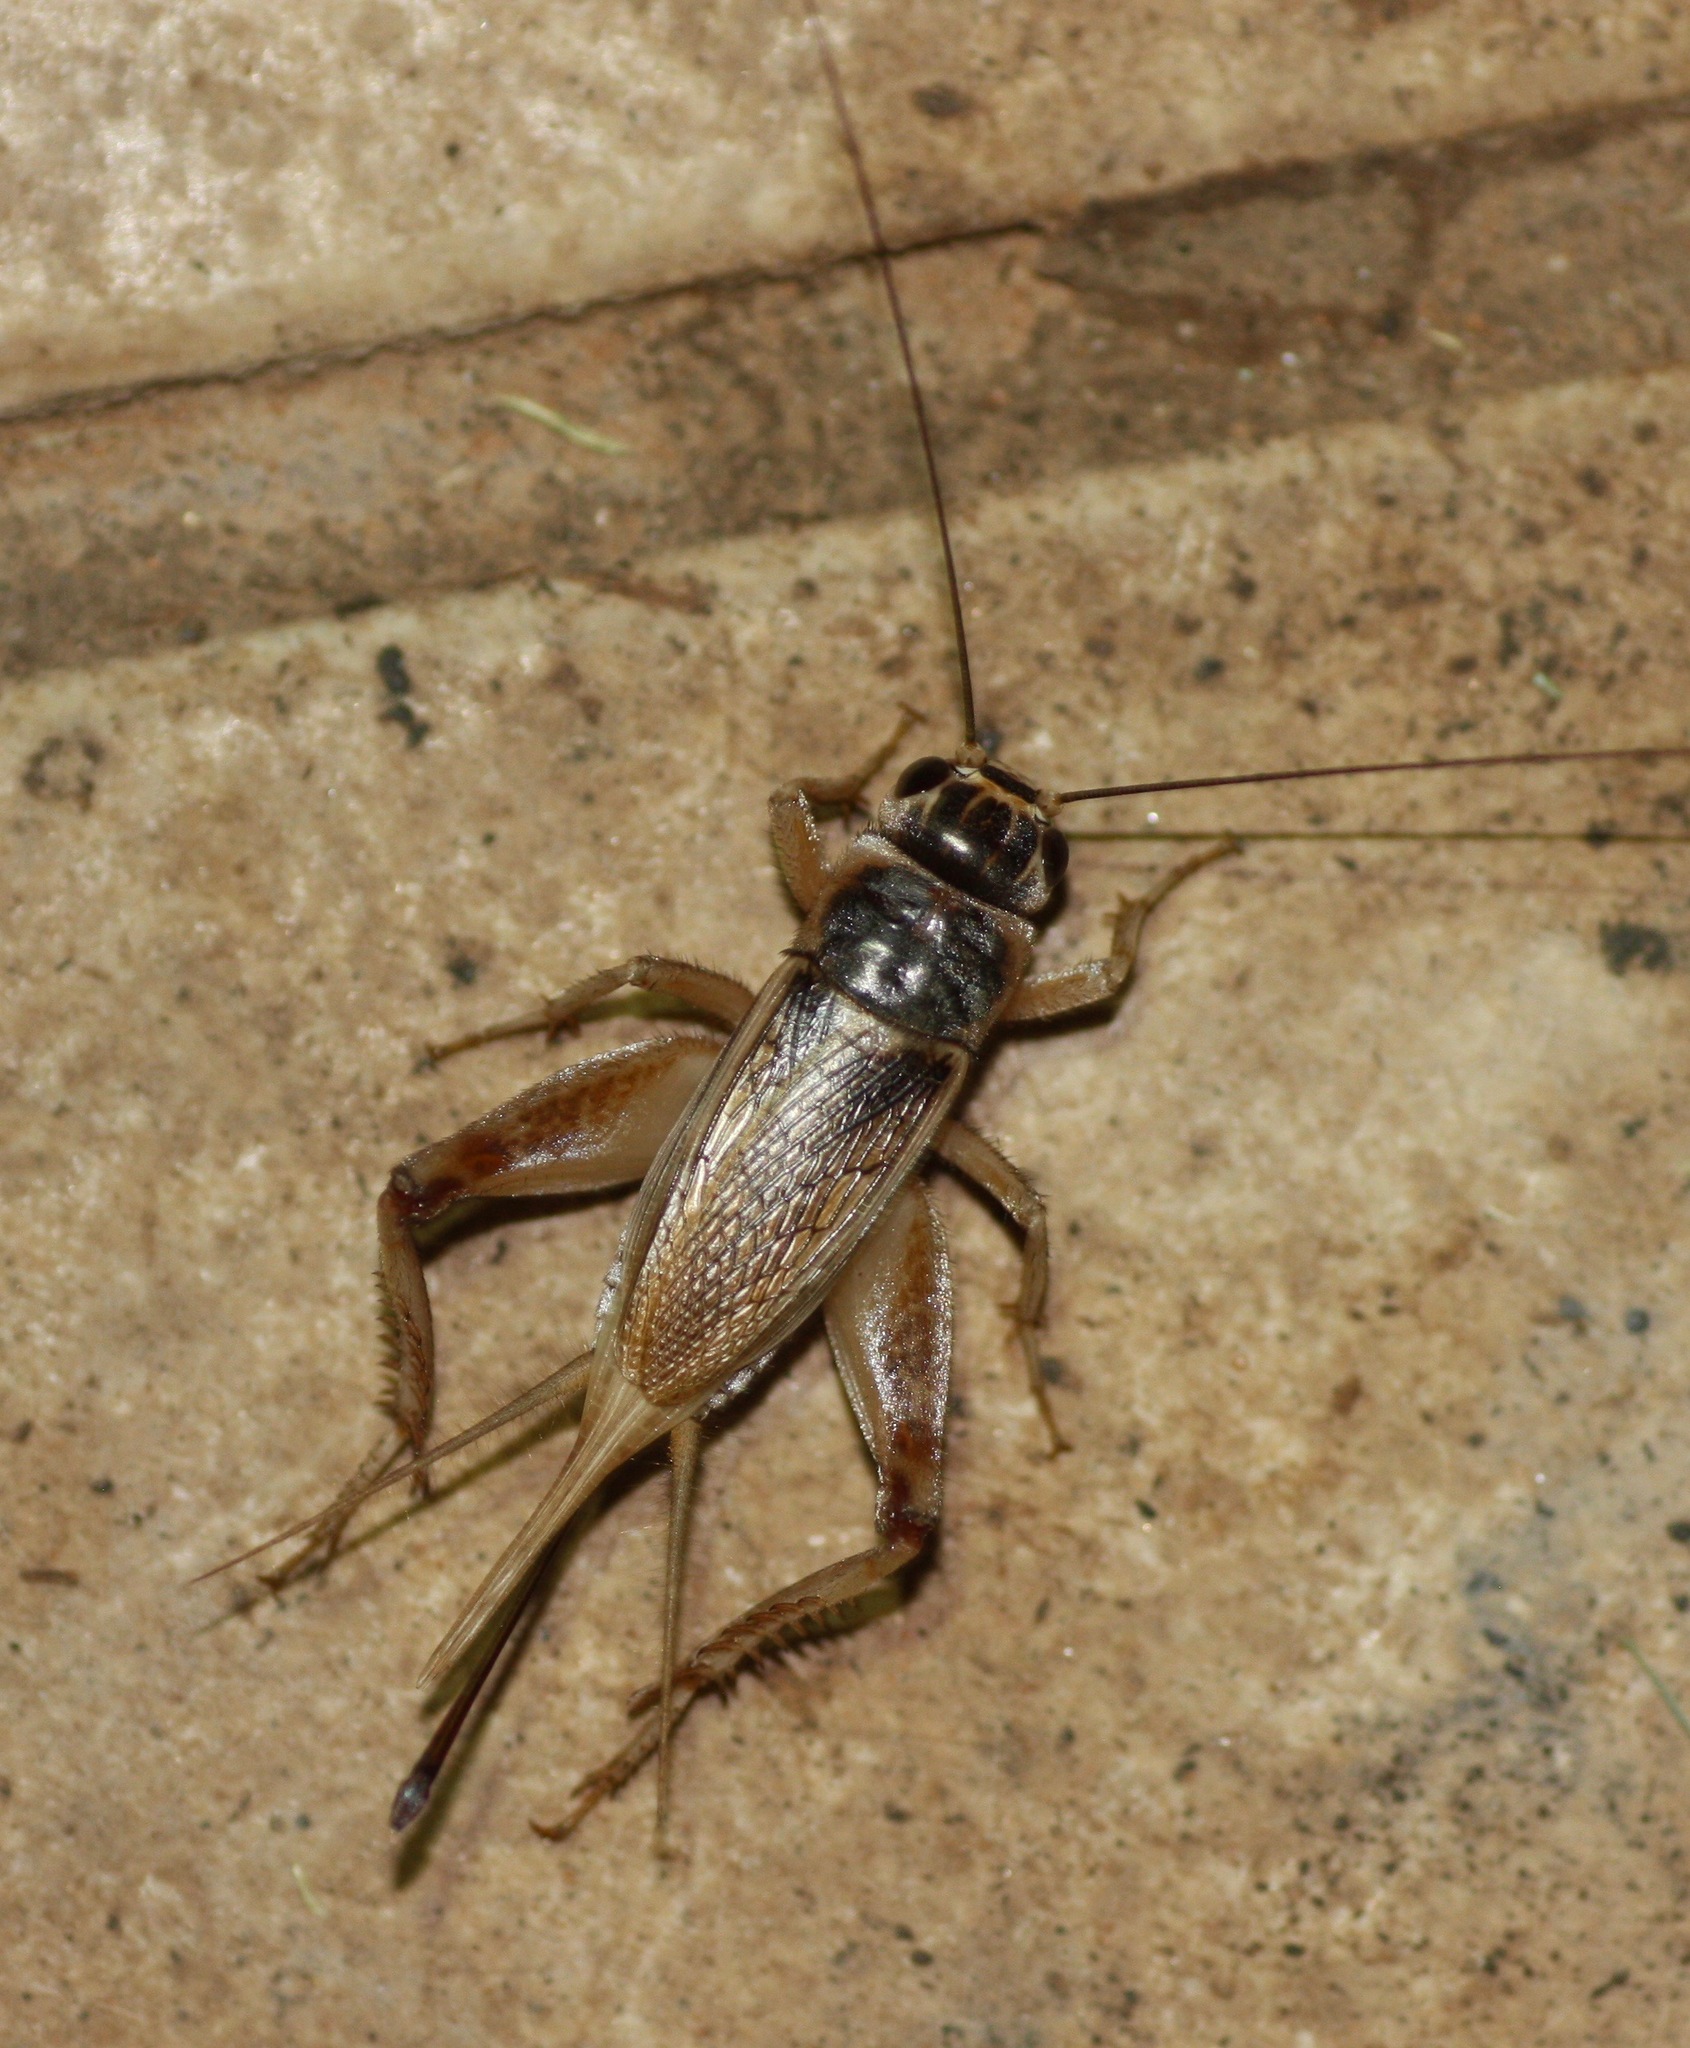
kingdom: Animalia
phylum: Arthropoda
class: Insecta
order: Orthoptera
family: Gryllidae
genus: Gryllus
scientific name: Gryllus personatus
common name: Badlands cricket
